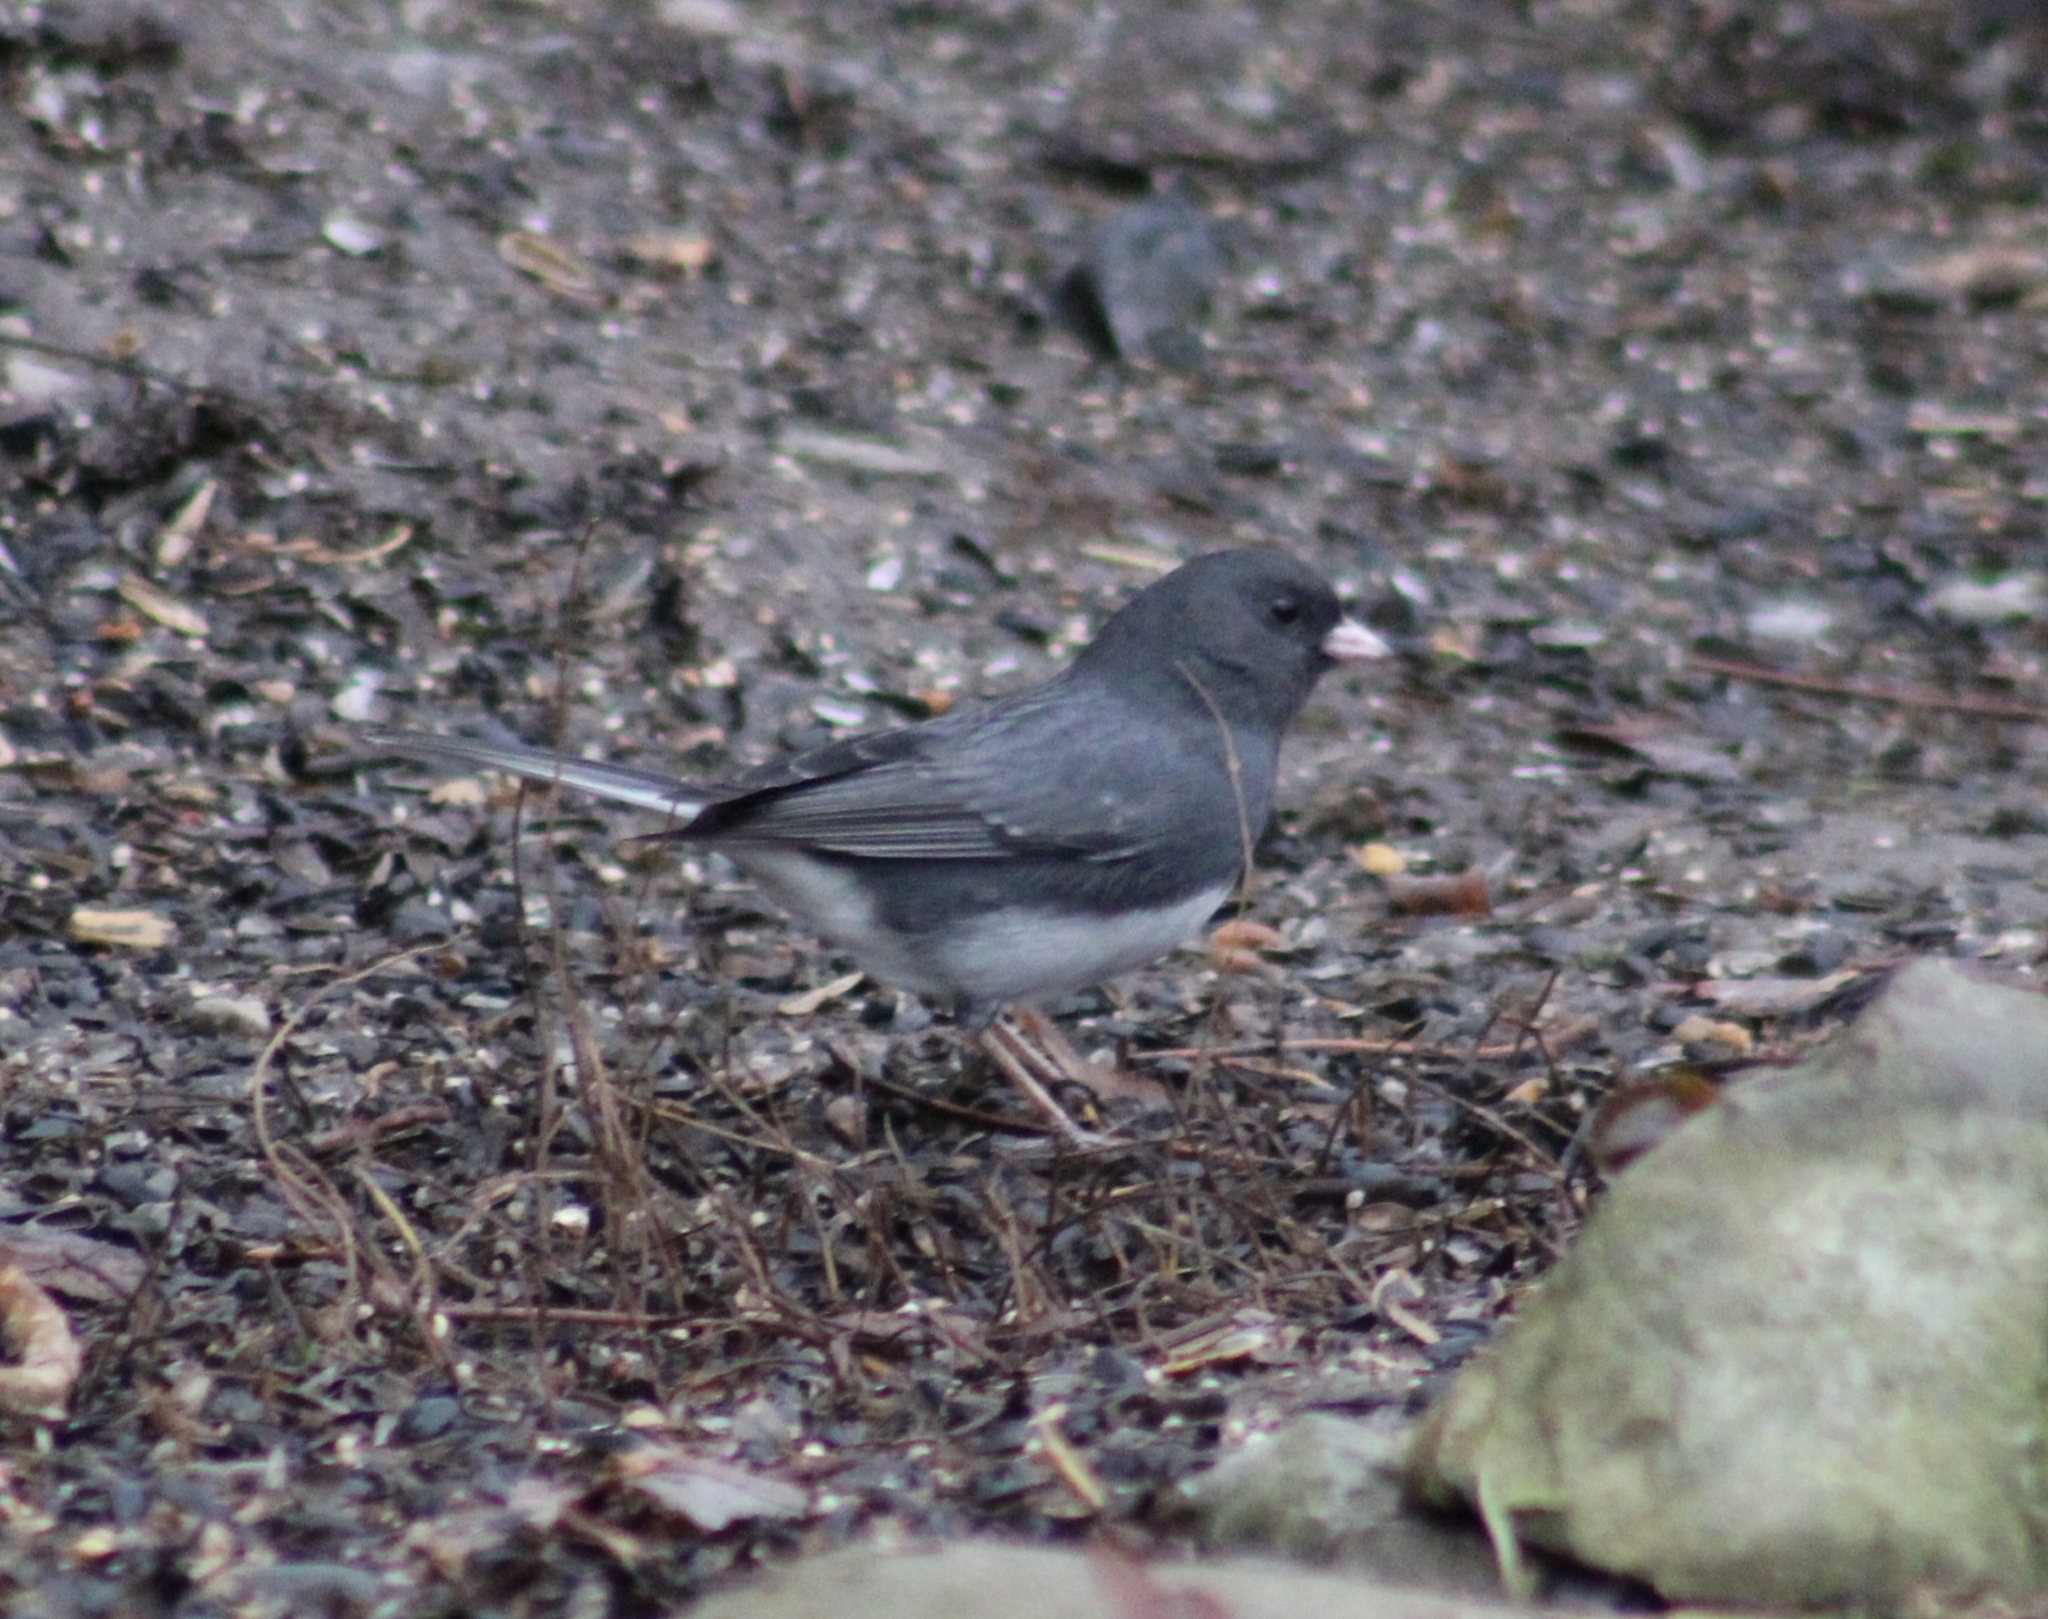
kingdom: Animalia
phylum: Chordata
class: Aves
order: Passeriformes
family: Passerellidae
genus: Junco
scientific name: Junco hyemalis
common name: Dark-eyed junco
